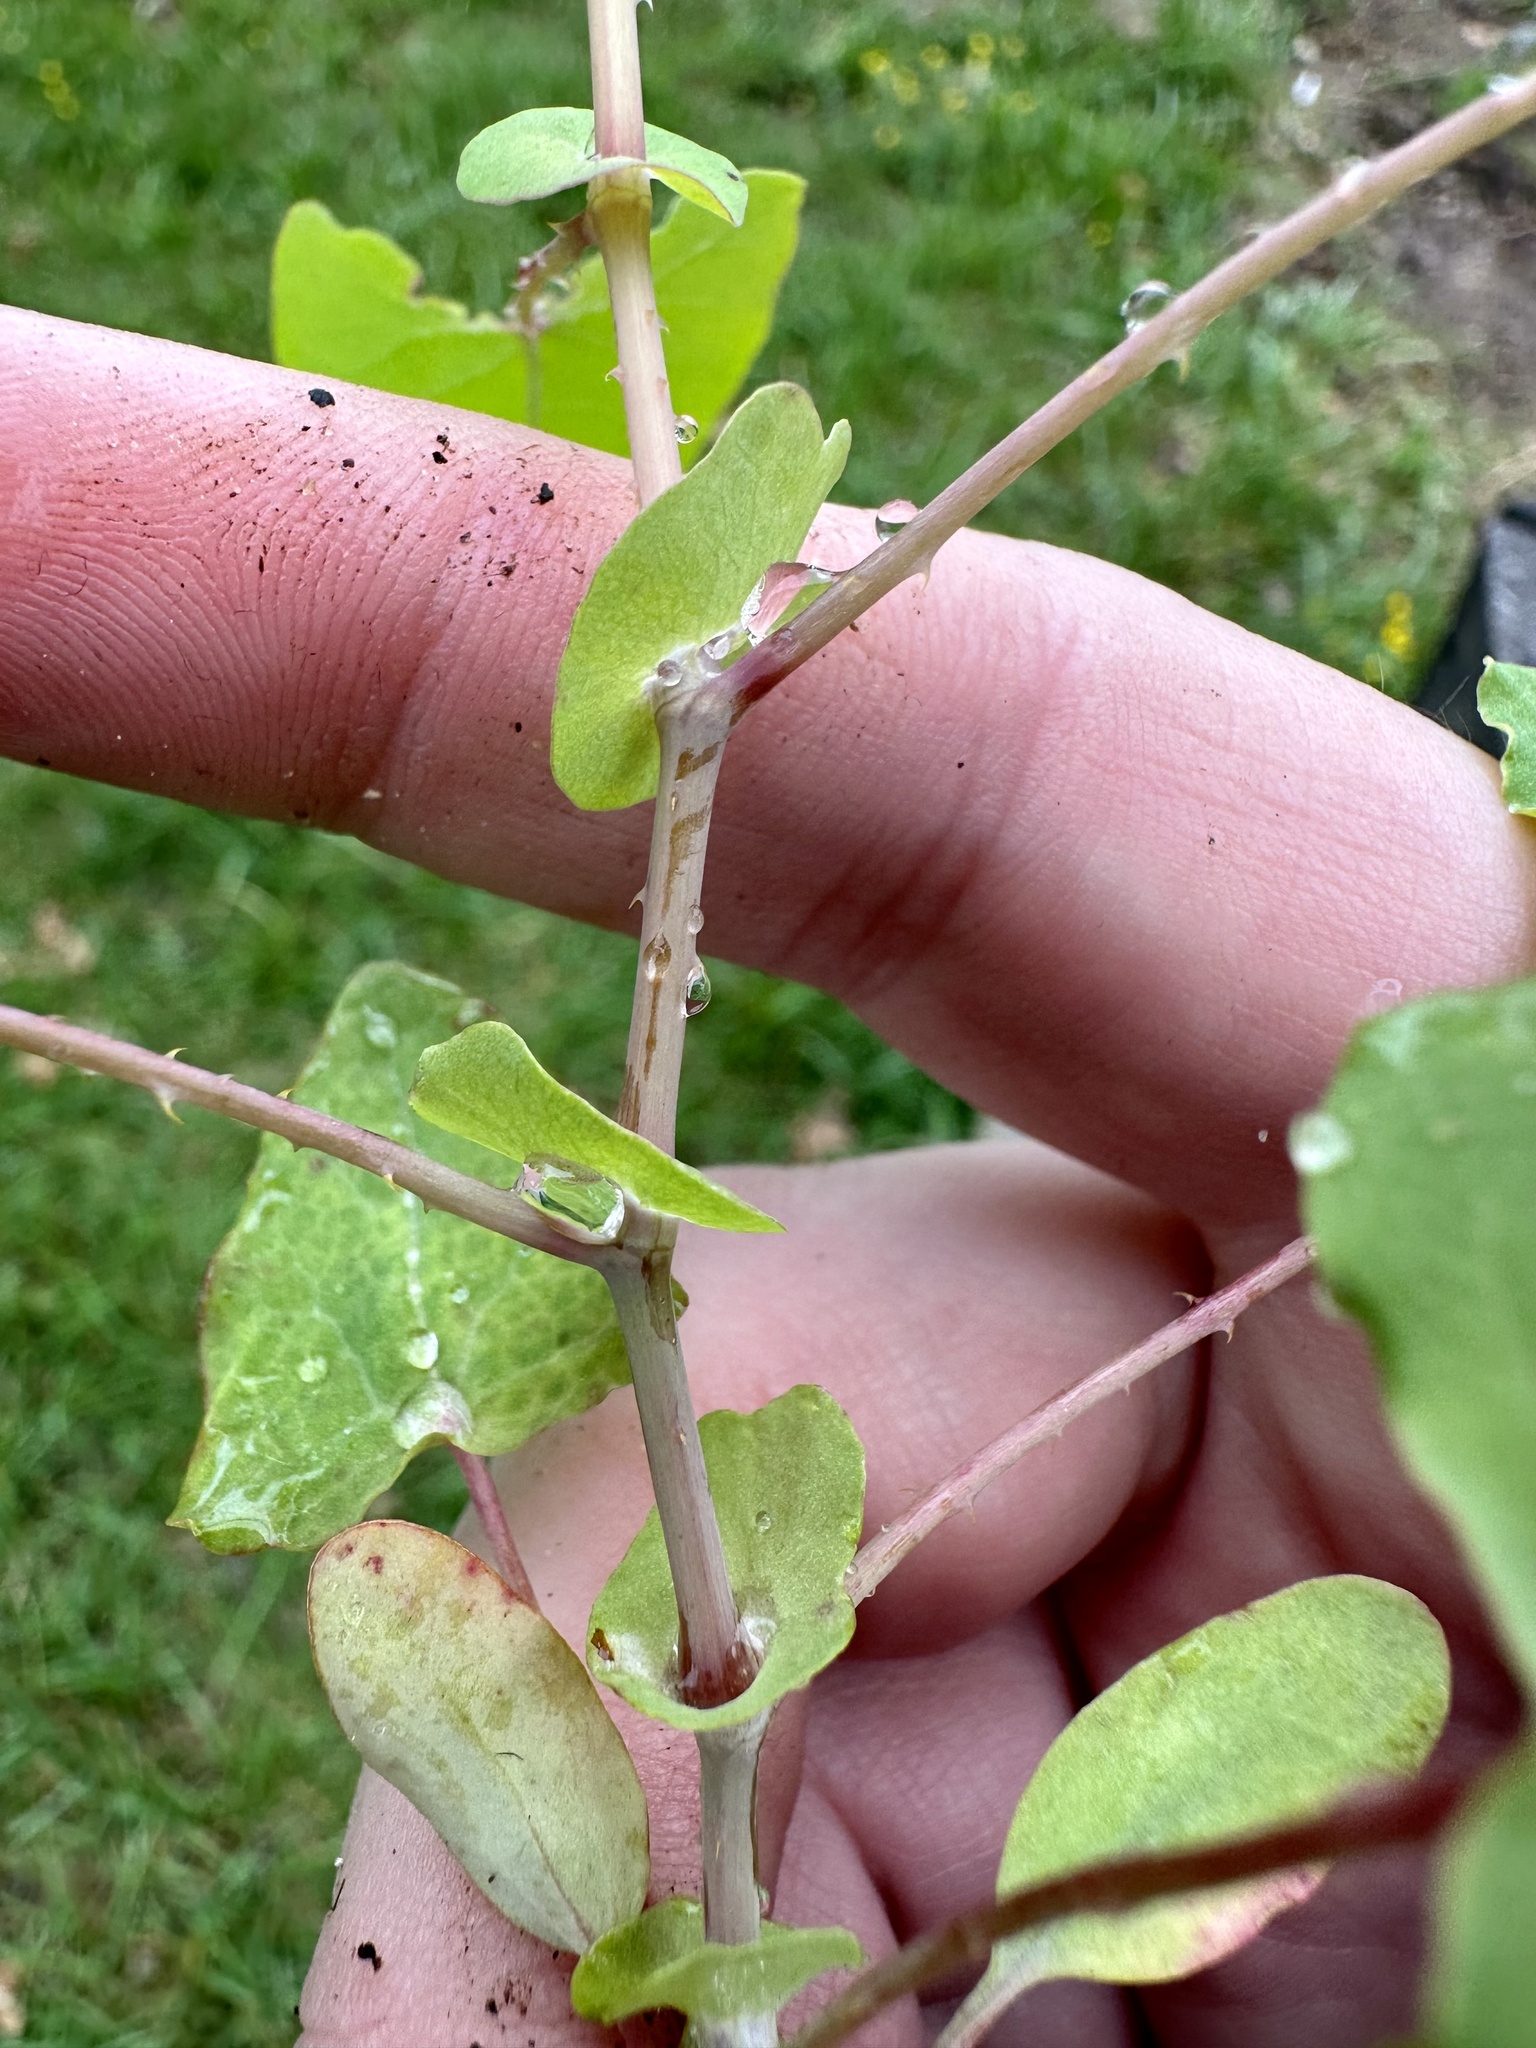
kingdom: Plantae
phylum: Tracheophyta
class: Magnoliopsida
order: Caryophyllales
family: Polygonaceae
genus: Persicaria
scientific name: Persicaria perfoliata
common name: Asiatic tearthumb
